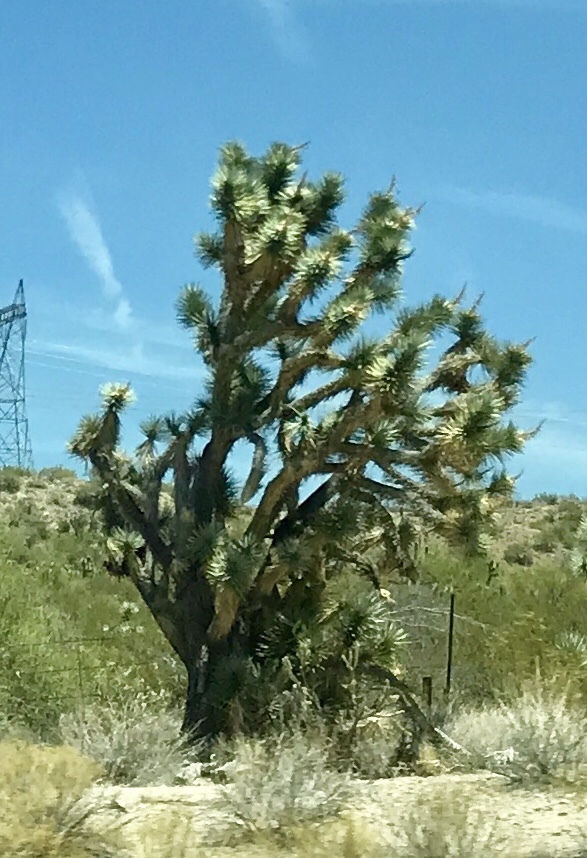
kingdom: Plantae
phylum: Tracheophyta
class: Liliopsida
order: Asparagales
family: Asparagaceae
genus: Yucca
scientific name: Yucca brevifolia
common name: Joshua tree
